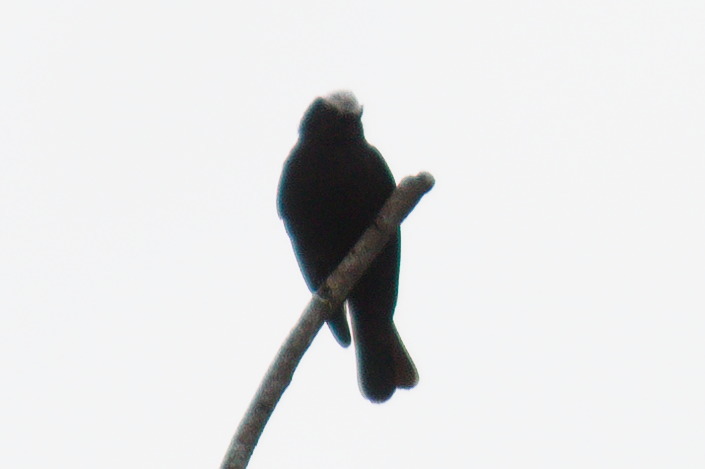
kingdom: Animalia
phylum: Chordata
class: Aves
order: Passeriformes
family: Tyrannidae
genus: Colonia
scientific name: Colonia colonus
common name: Long-tailed tyrant
